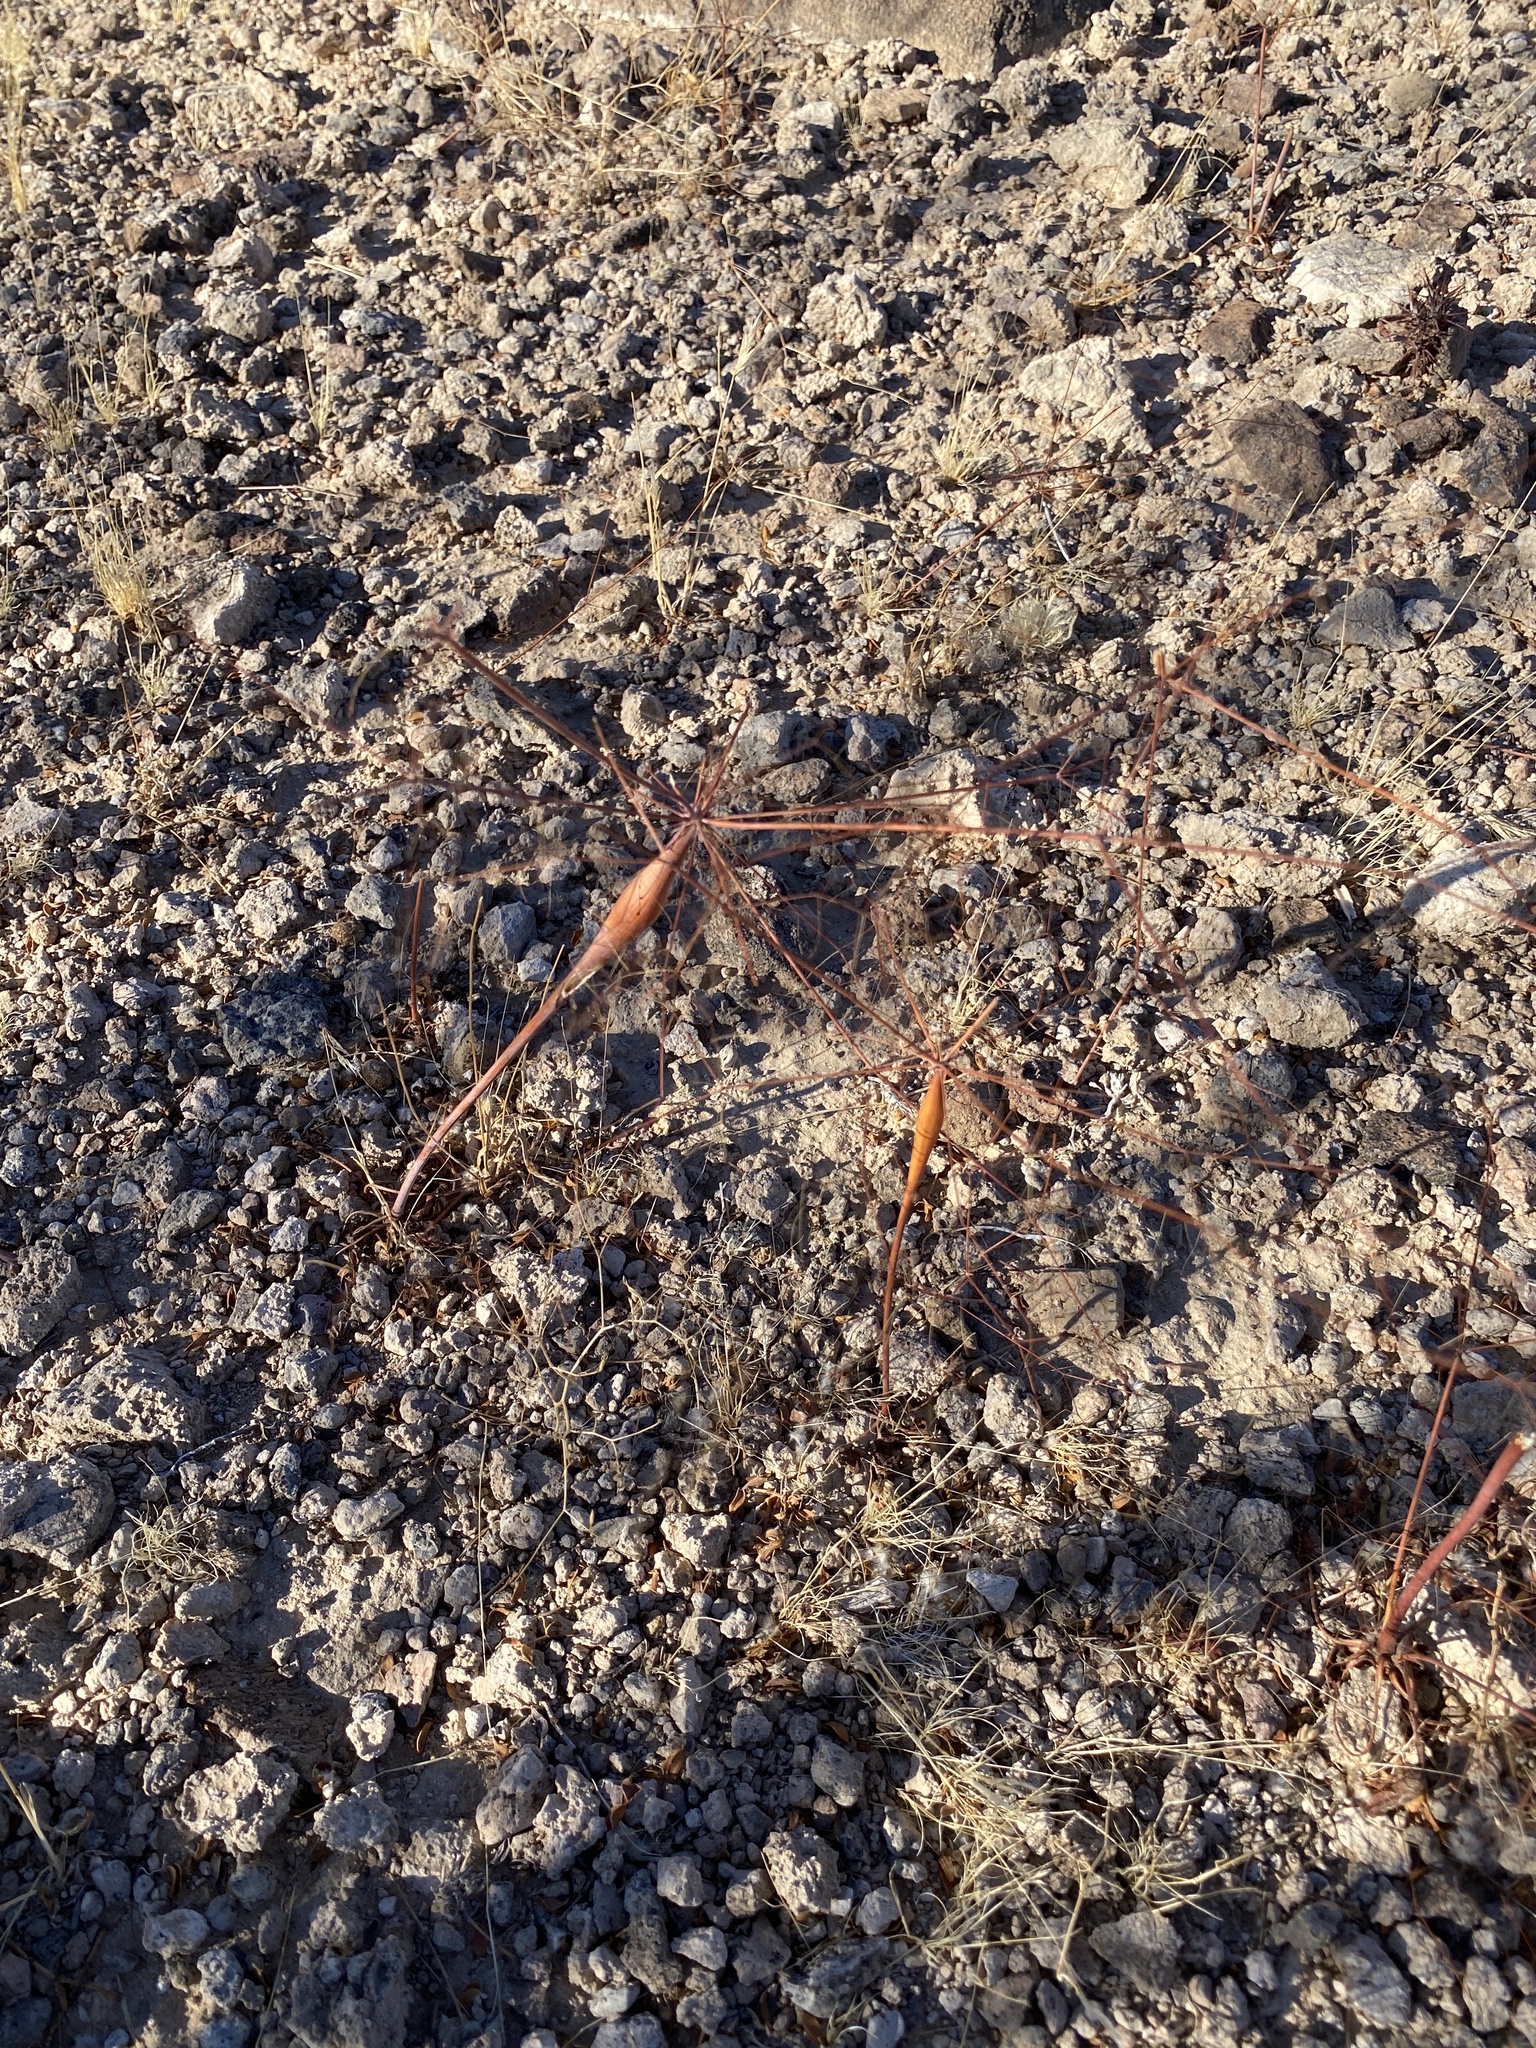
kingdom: Plantae
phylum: Tracheophyta
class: Magnoliopsida
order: Caryophyllales
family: Polygonaceae
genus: Eriogonum
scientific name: Eriogonum inflatum
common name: Desert trumpet
